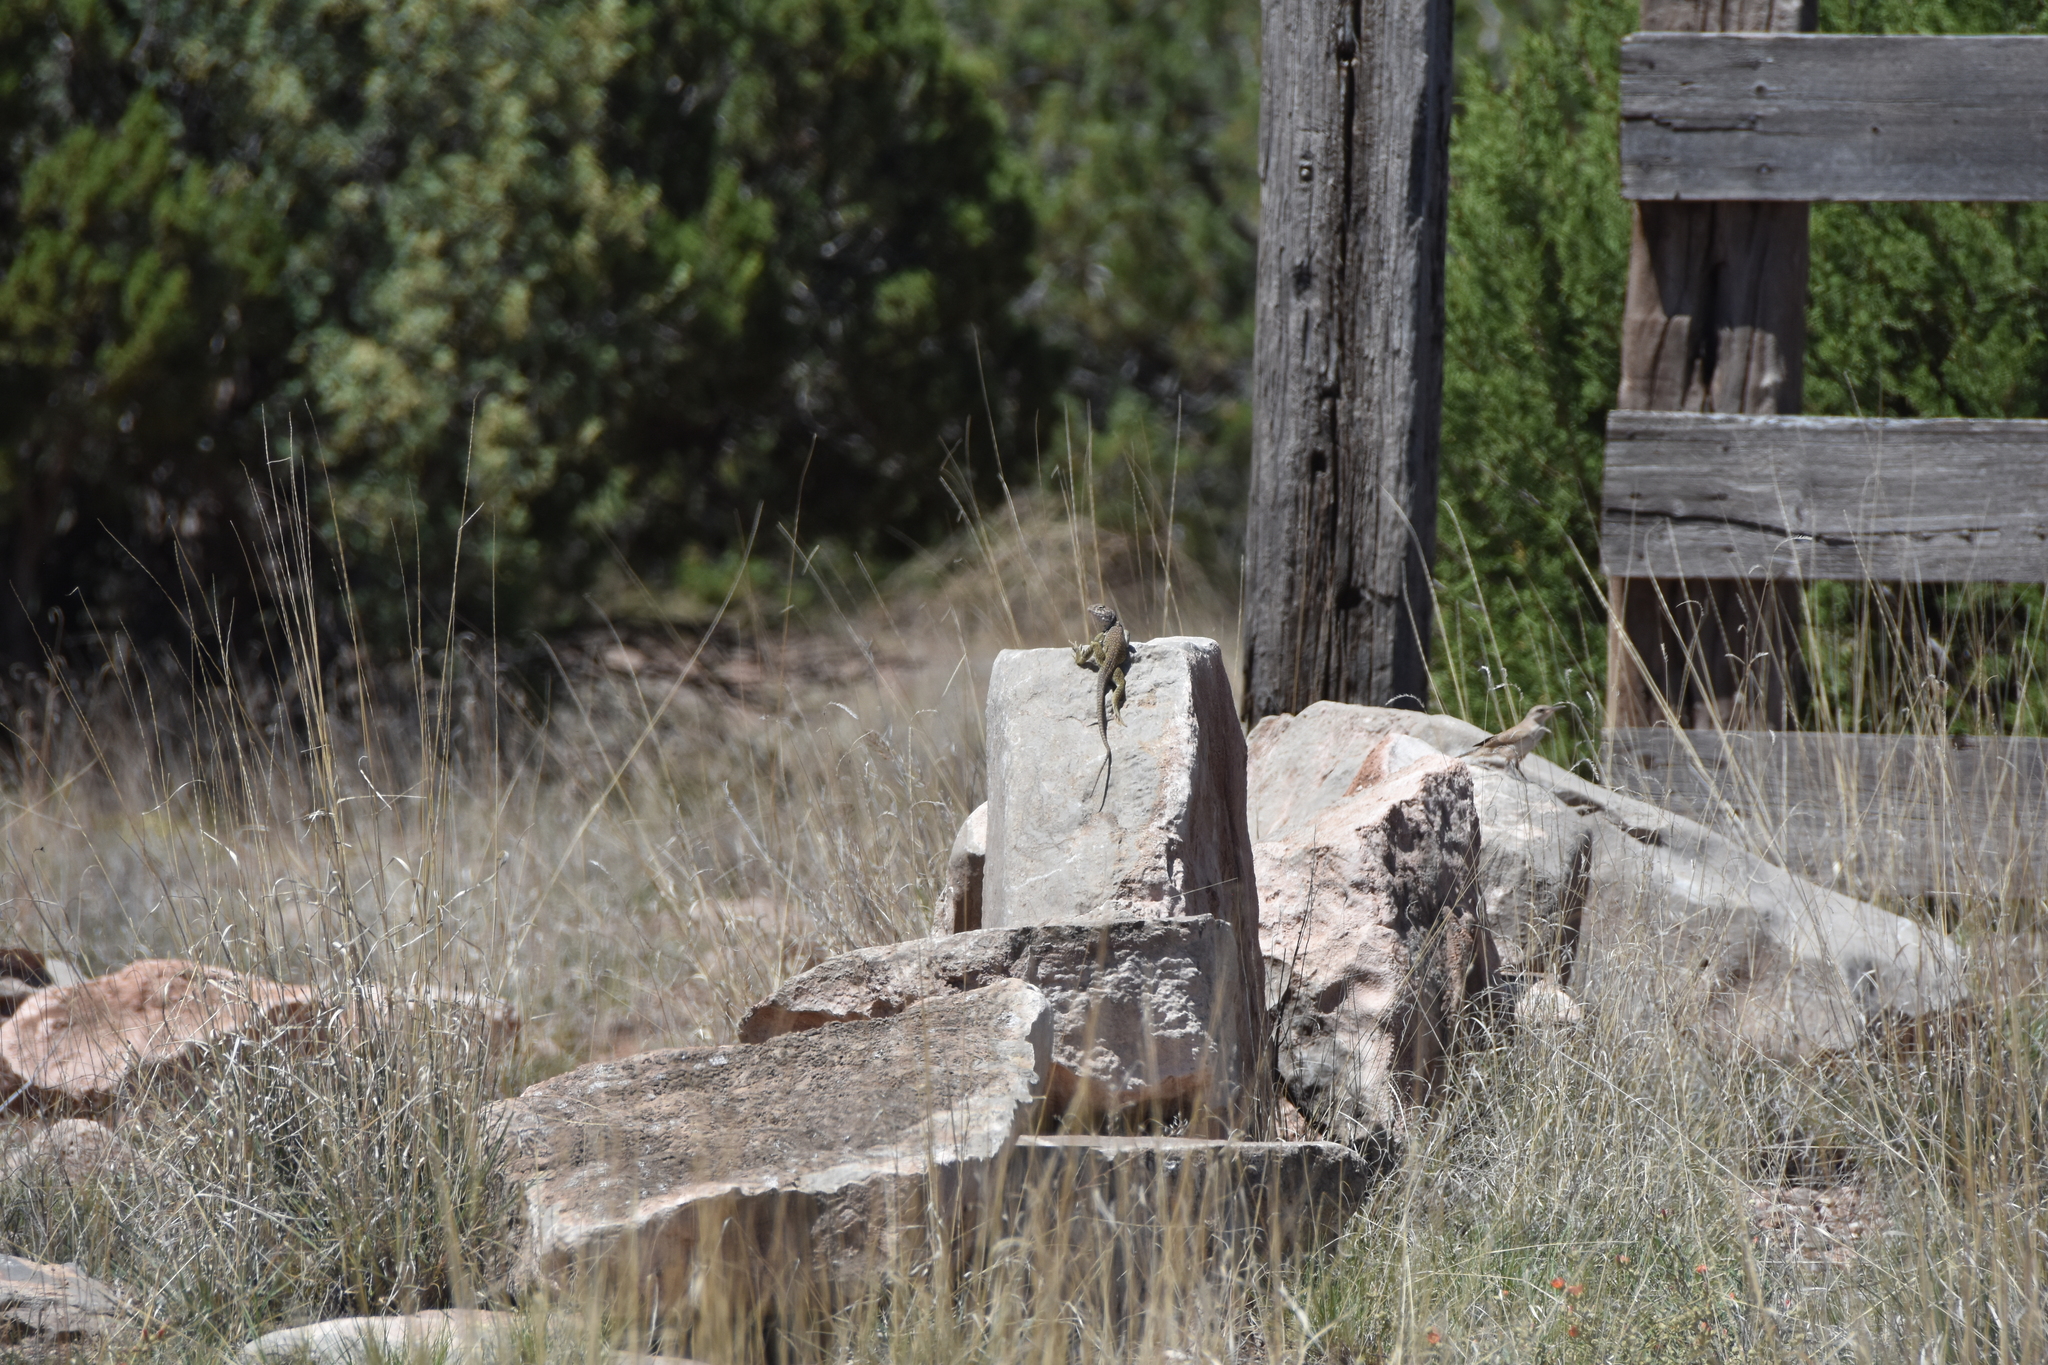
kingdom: Animalia
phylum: Chordata
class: Aves
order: Passeriformes
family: Troglodytidae
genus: Salpinctes
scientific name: Salpinctes obsoletus
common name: Rock wren
